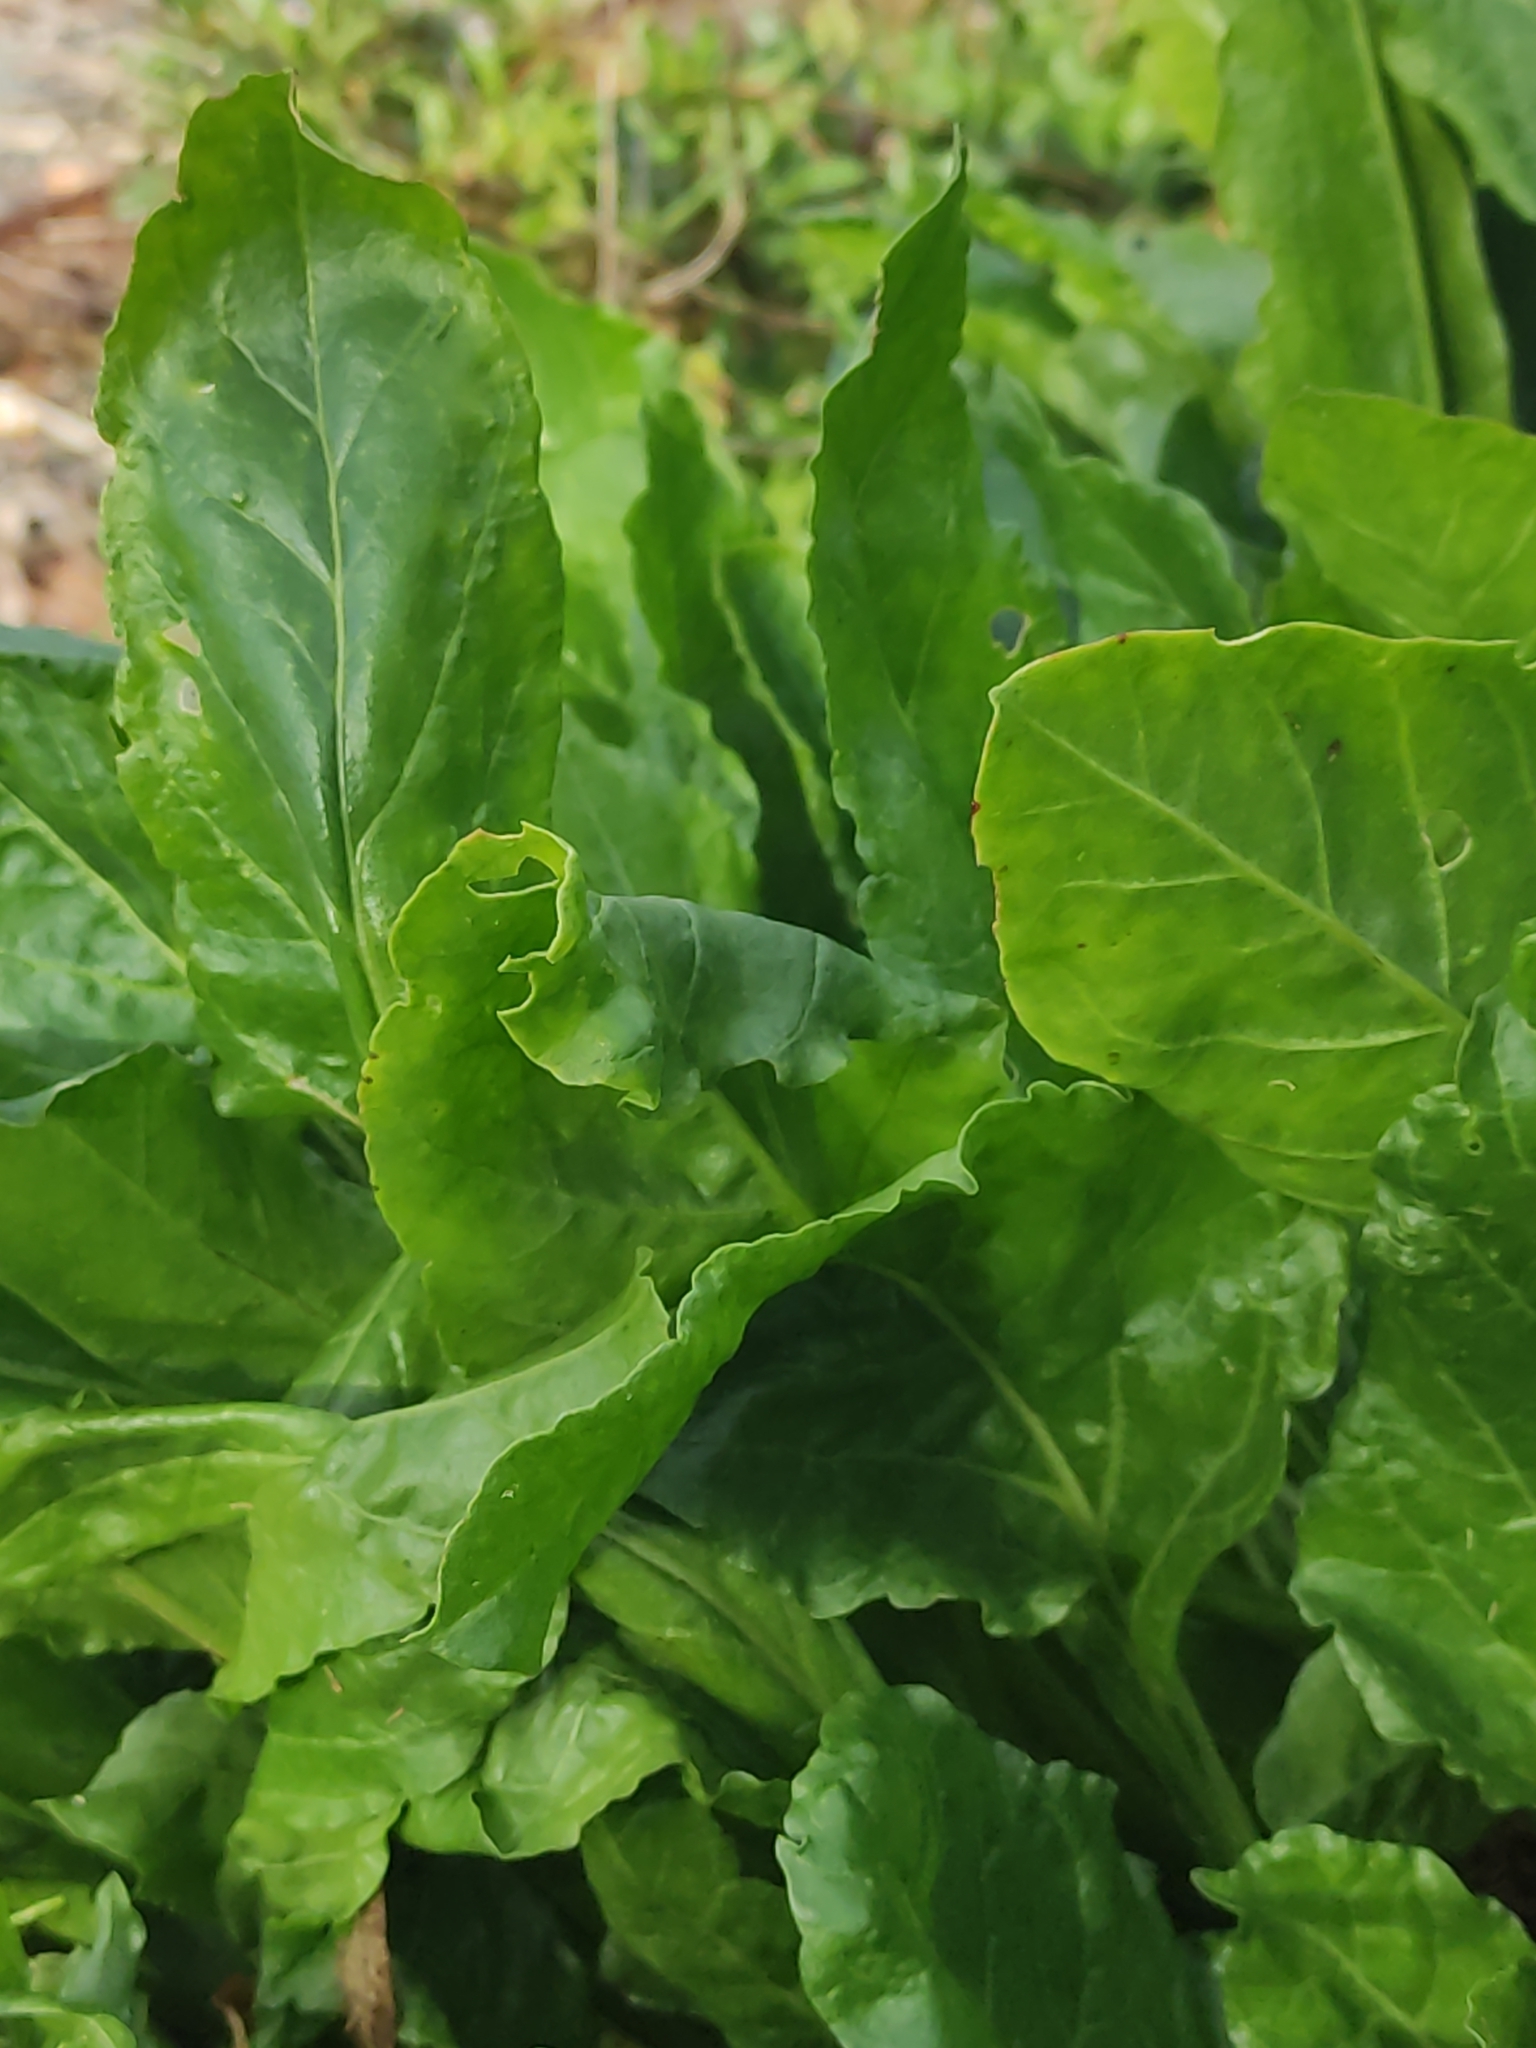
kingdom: Plantae
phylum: Tracheophyta
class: Magnoliopsida
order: Caryophyllales
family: Amaranthaceae
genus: Beta
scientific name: Beta vulgaris
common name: Beet
